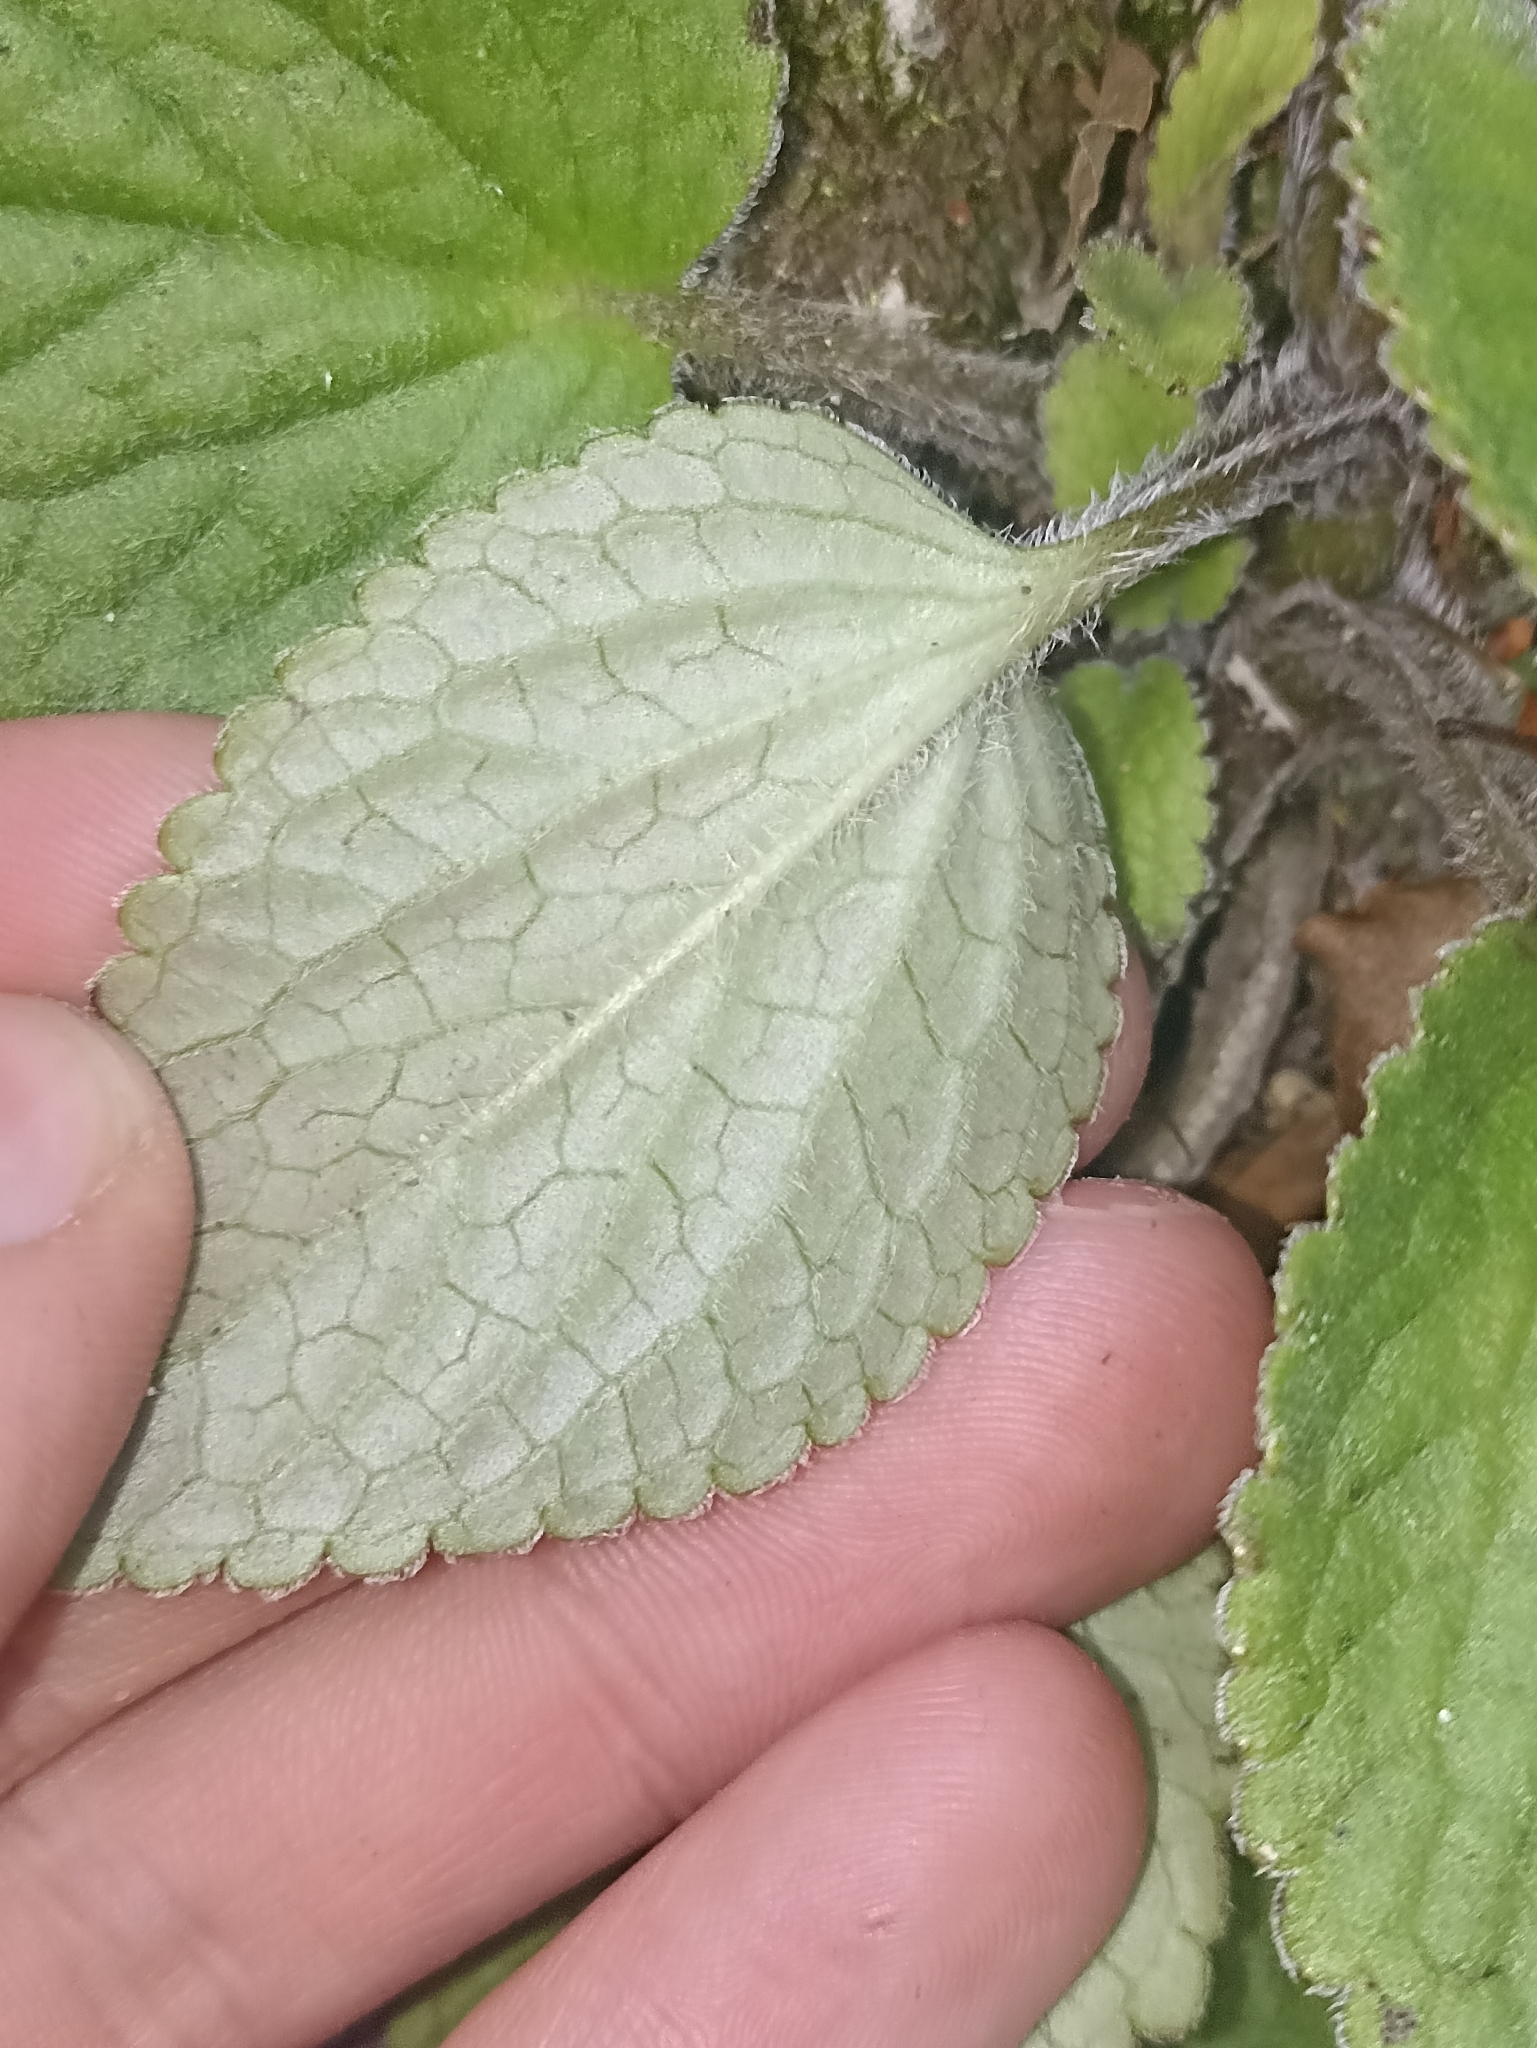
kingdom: Plantae
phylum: Tracheophyta
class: Magnoliopsida
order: Lamiales
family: Plantaginaceae
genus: Ourisia
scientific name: Ourisia macrophylla
